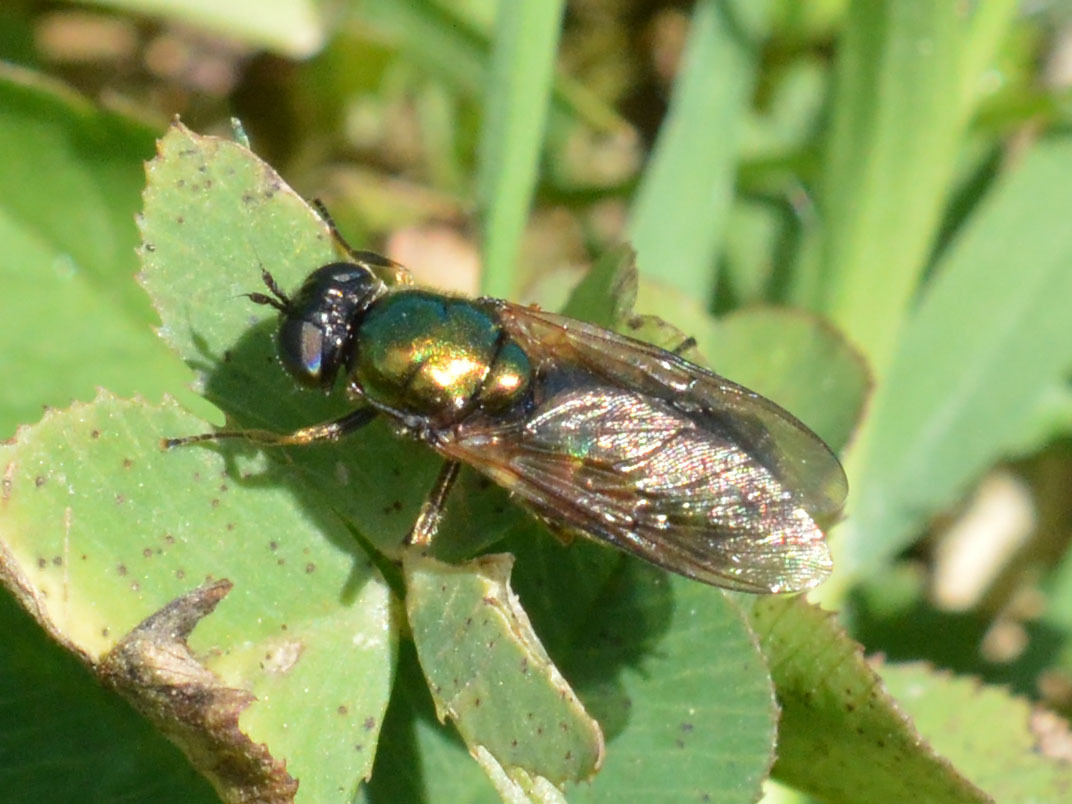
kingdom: Animalia
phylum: Arthropoda
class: Insecta
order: Diptera
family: Stratiomyidae
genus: Chloromyia
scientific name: Chloromyia formosa
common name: Soldier fly
